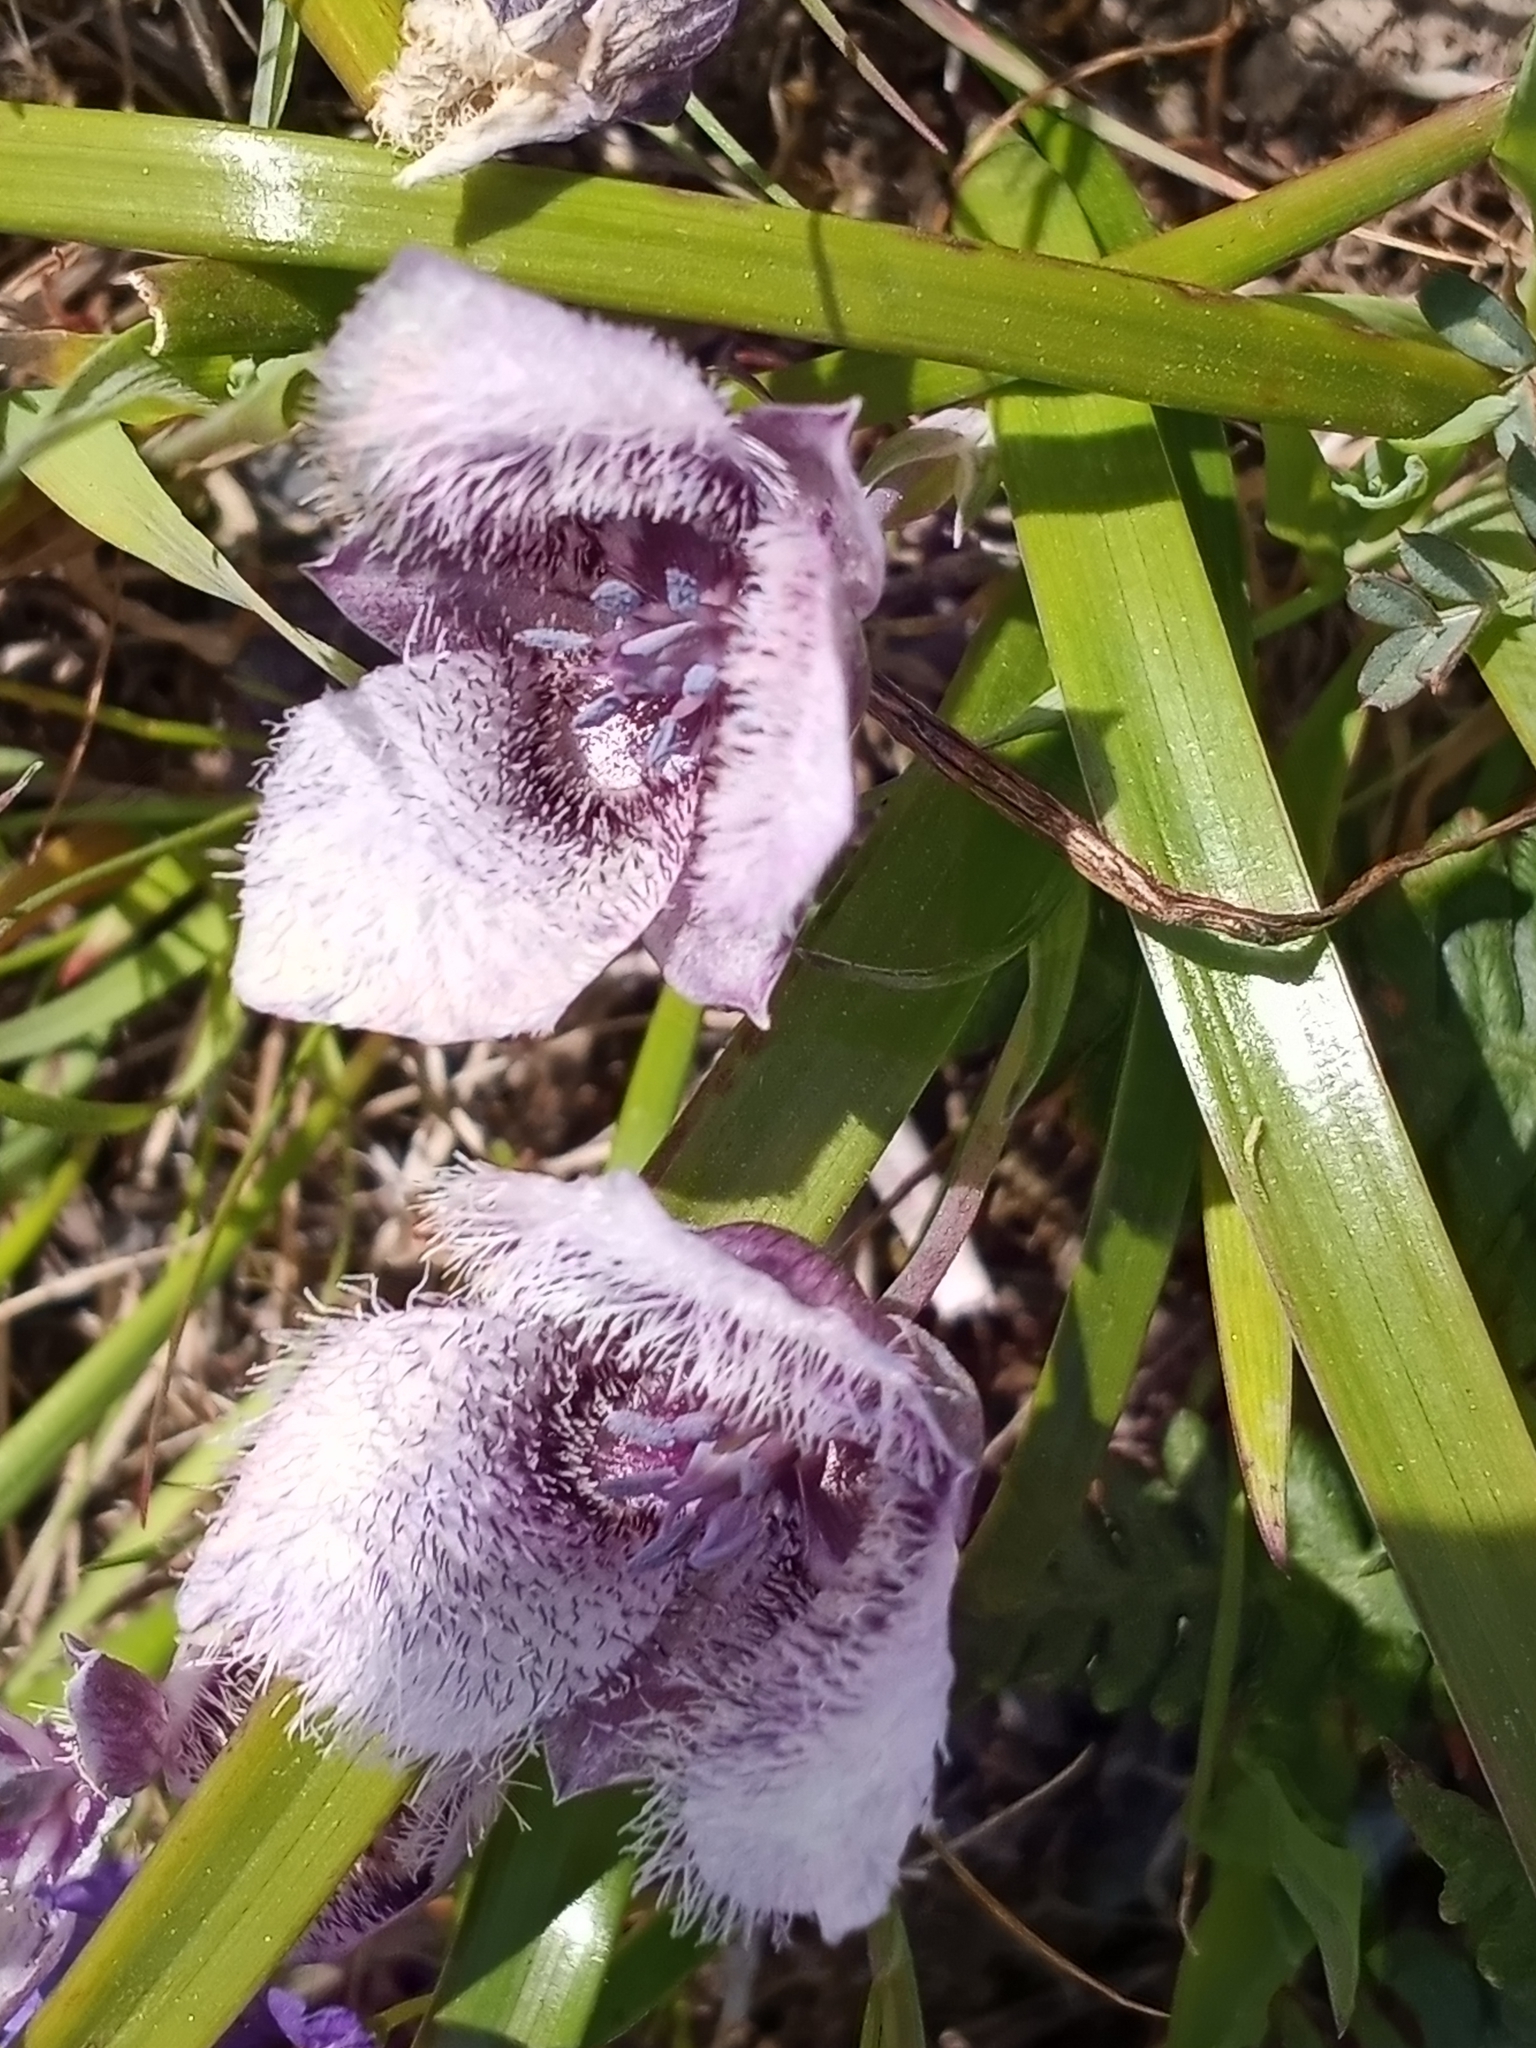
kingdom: Plantae
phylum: Tracheophyta
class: Liliopsida
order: Liliales
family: Liliaceae
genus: Calochortus
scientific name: Calochortus tolmiei
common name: Pussy-ears
